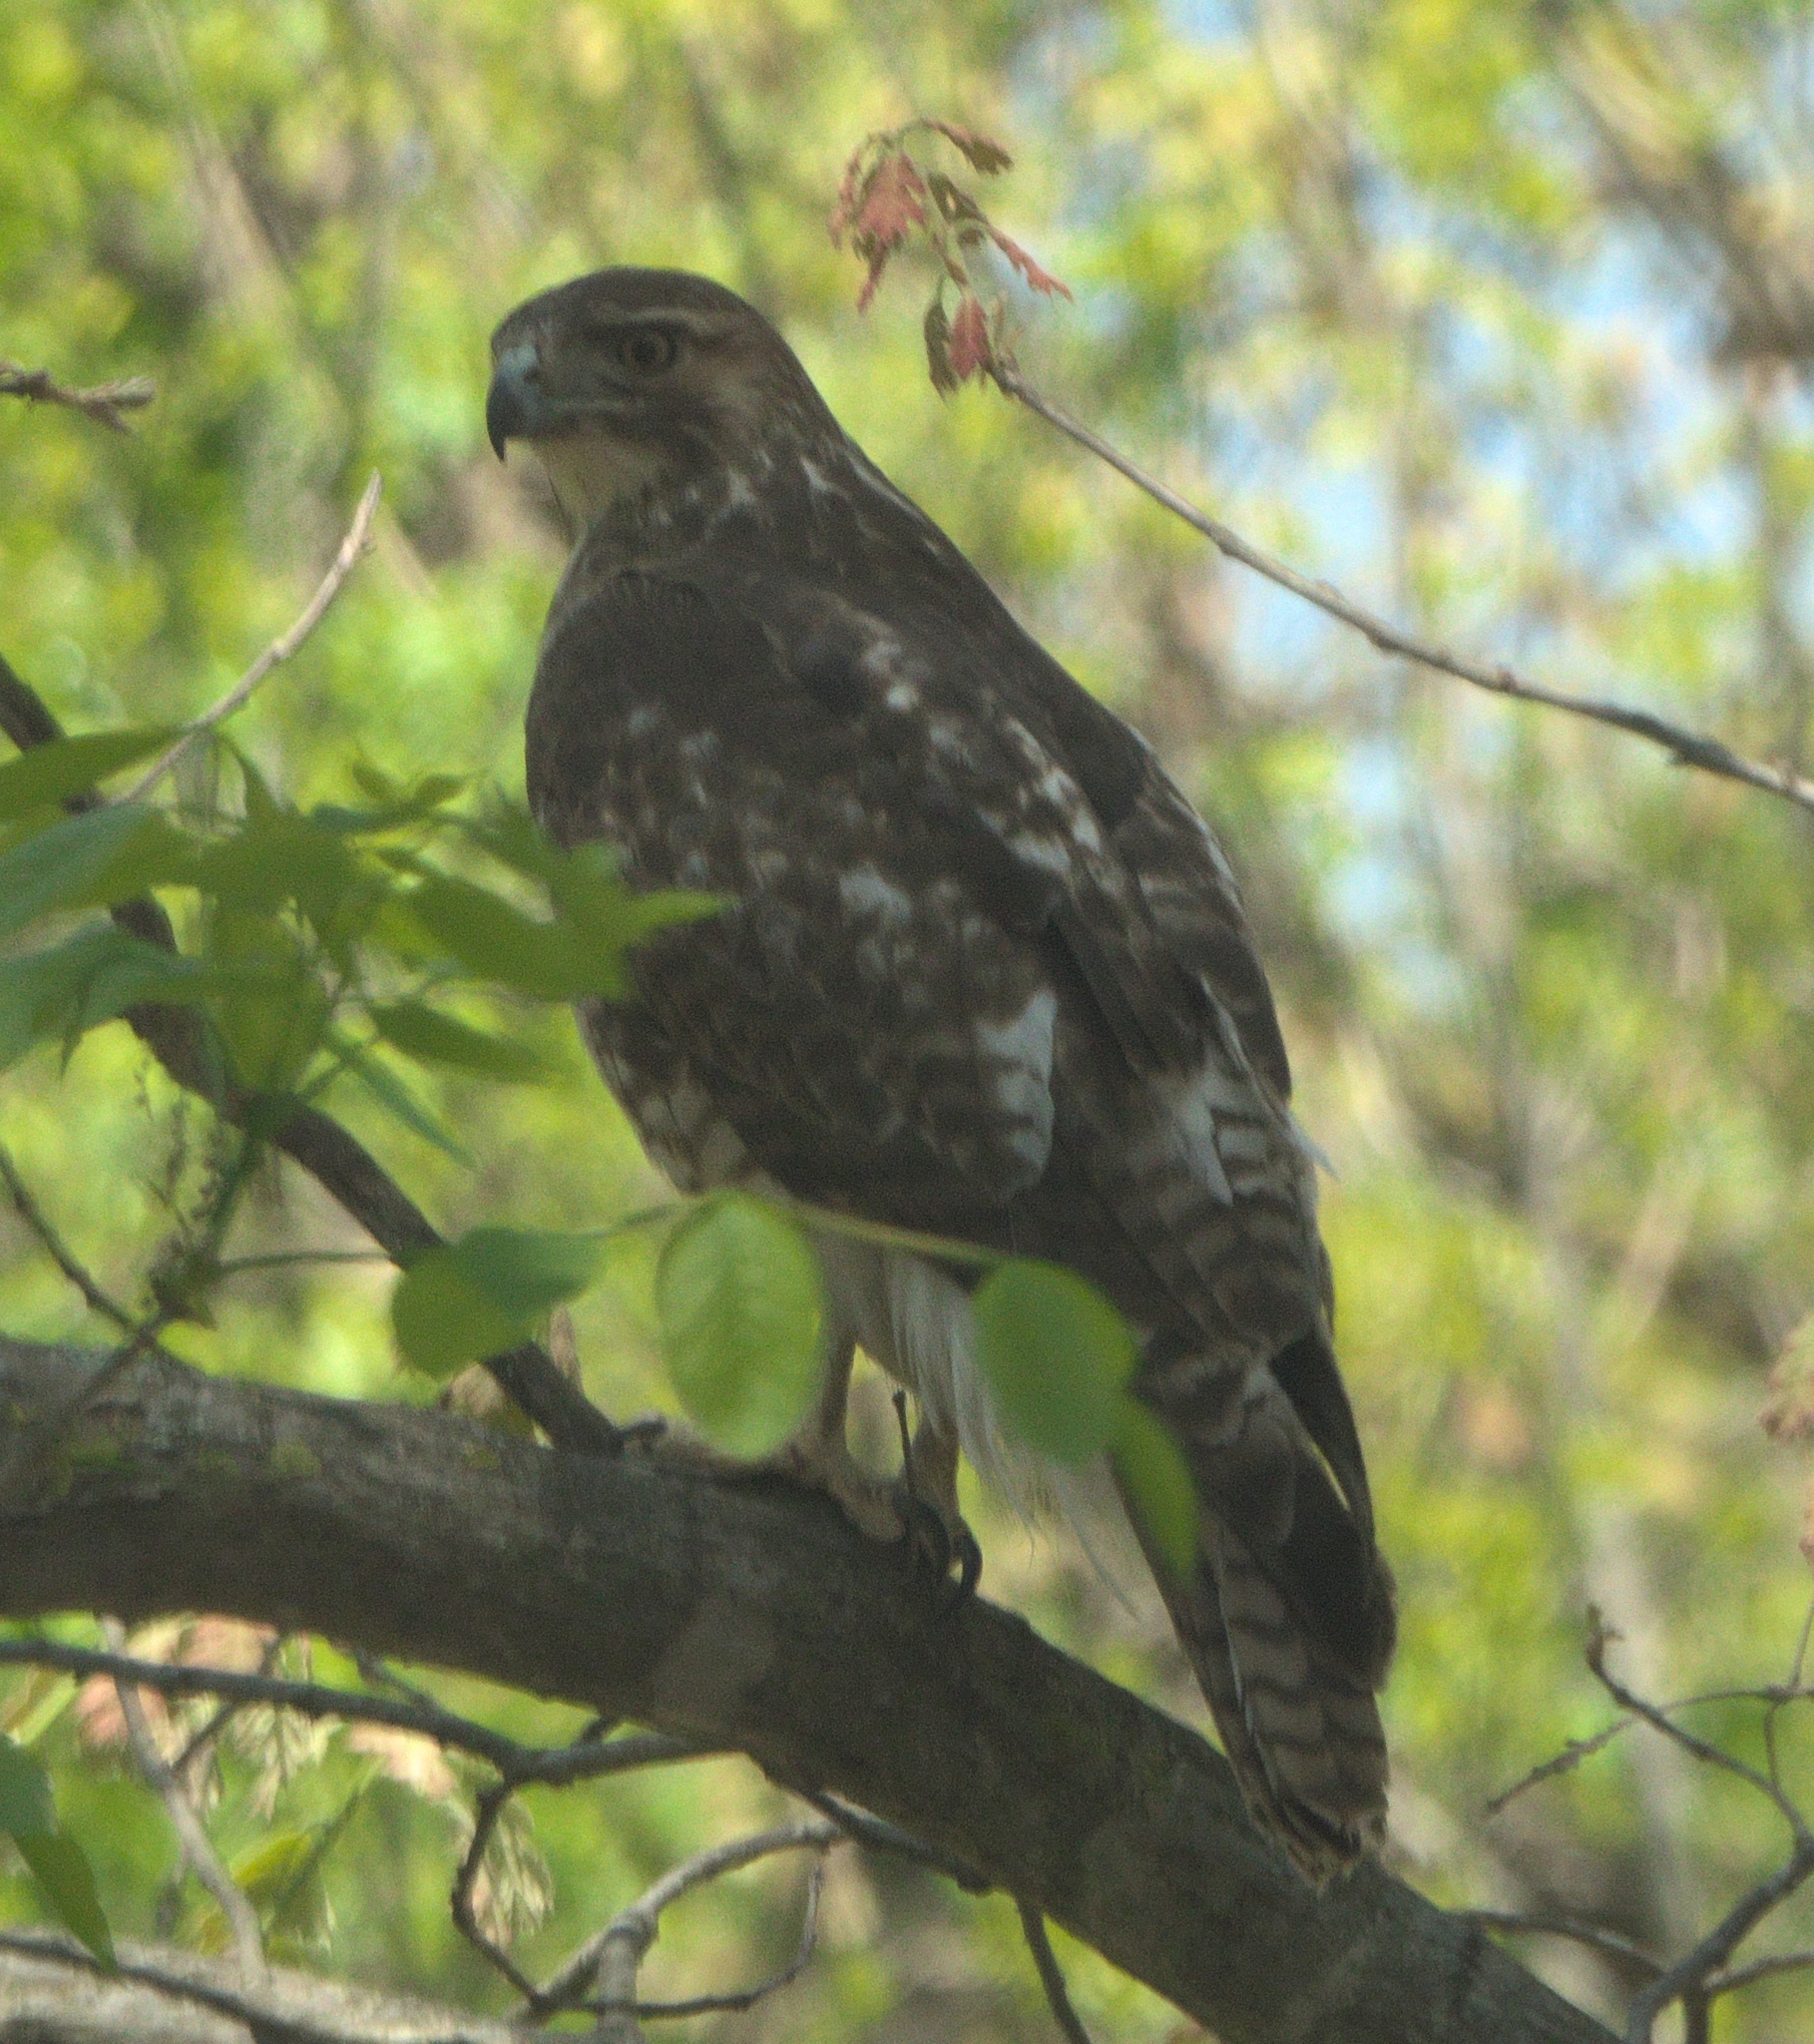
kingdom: Animalia
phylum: Chordata
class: Aves
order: Accipitriformes
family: Accipitridae
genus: Buteo
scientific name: Buteo jamaicensis
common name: Red-tailed hawk
